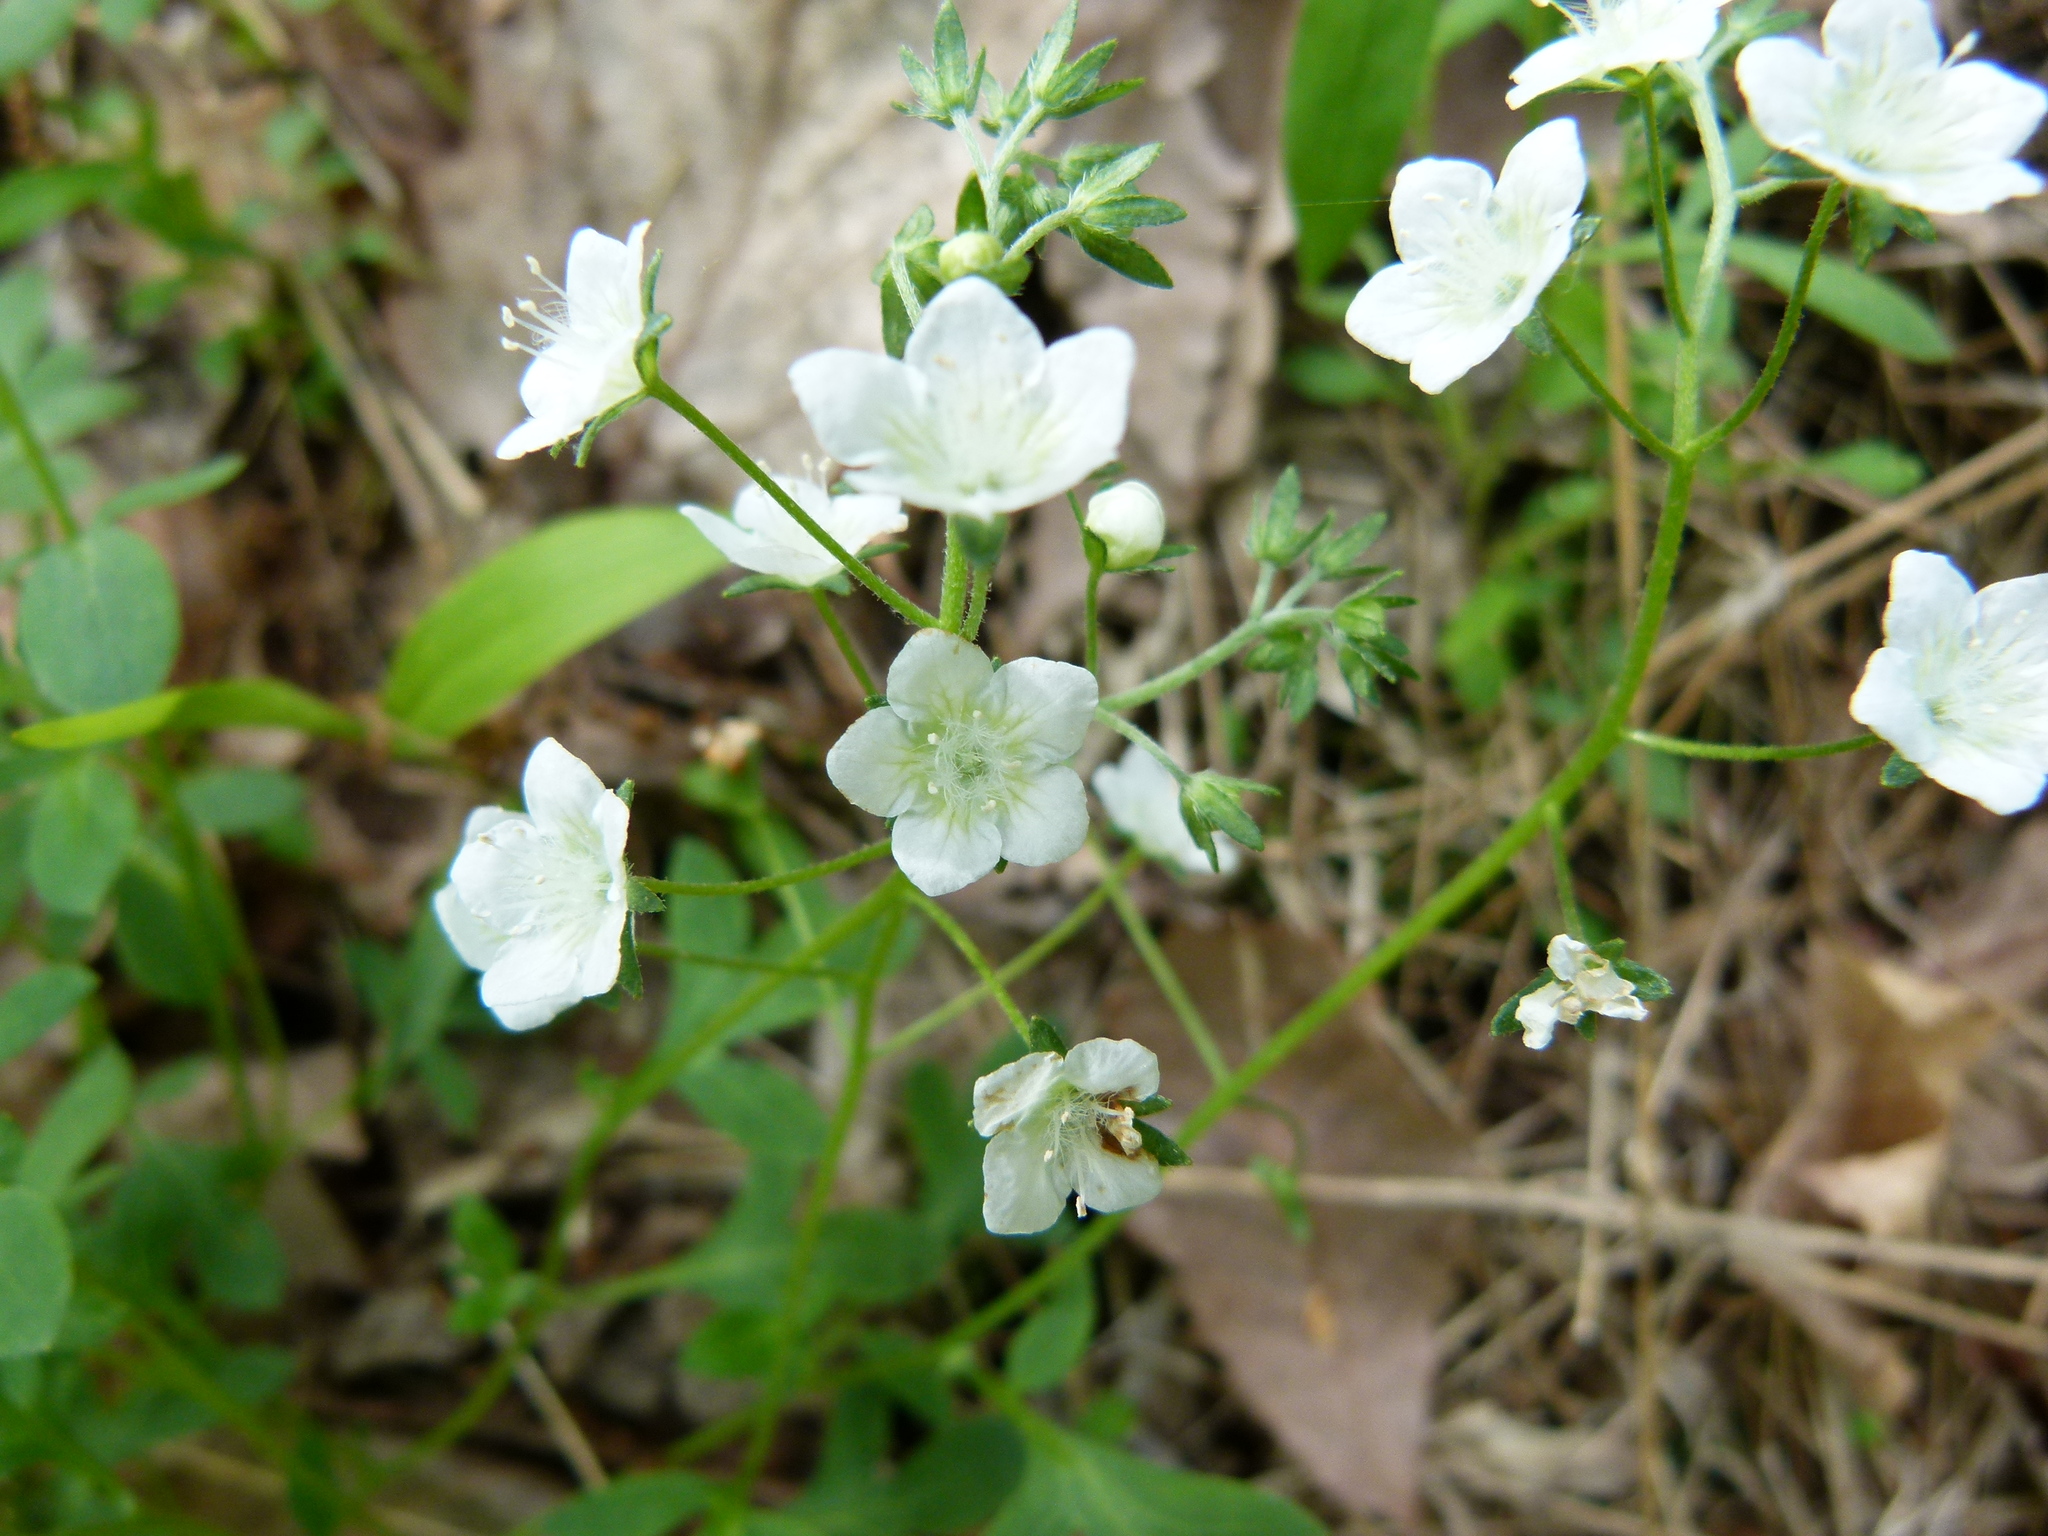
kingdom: Plantae
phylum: Tracheophyta
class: Magnoliopsida
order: Boraginales
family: Hydrophyllaceae
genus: Phacelia
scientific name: Phacelia dubia
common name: Appalachian phacelia
